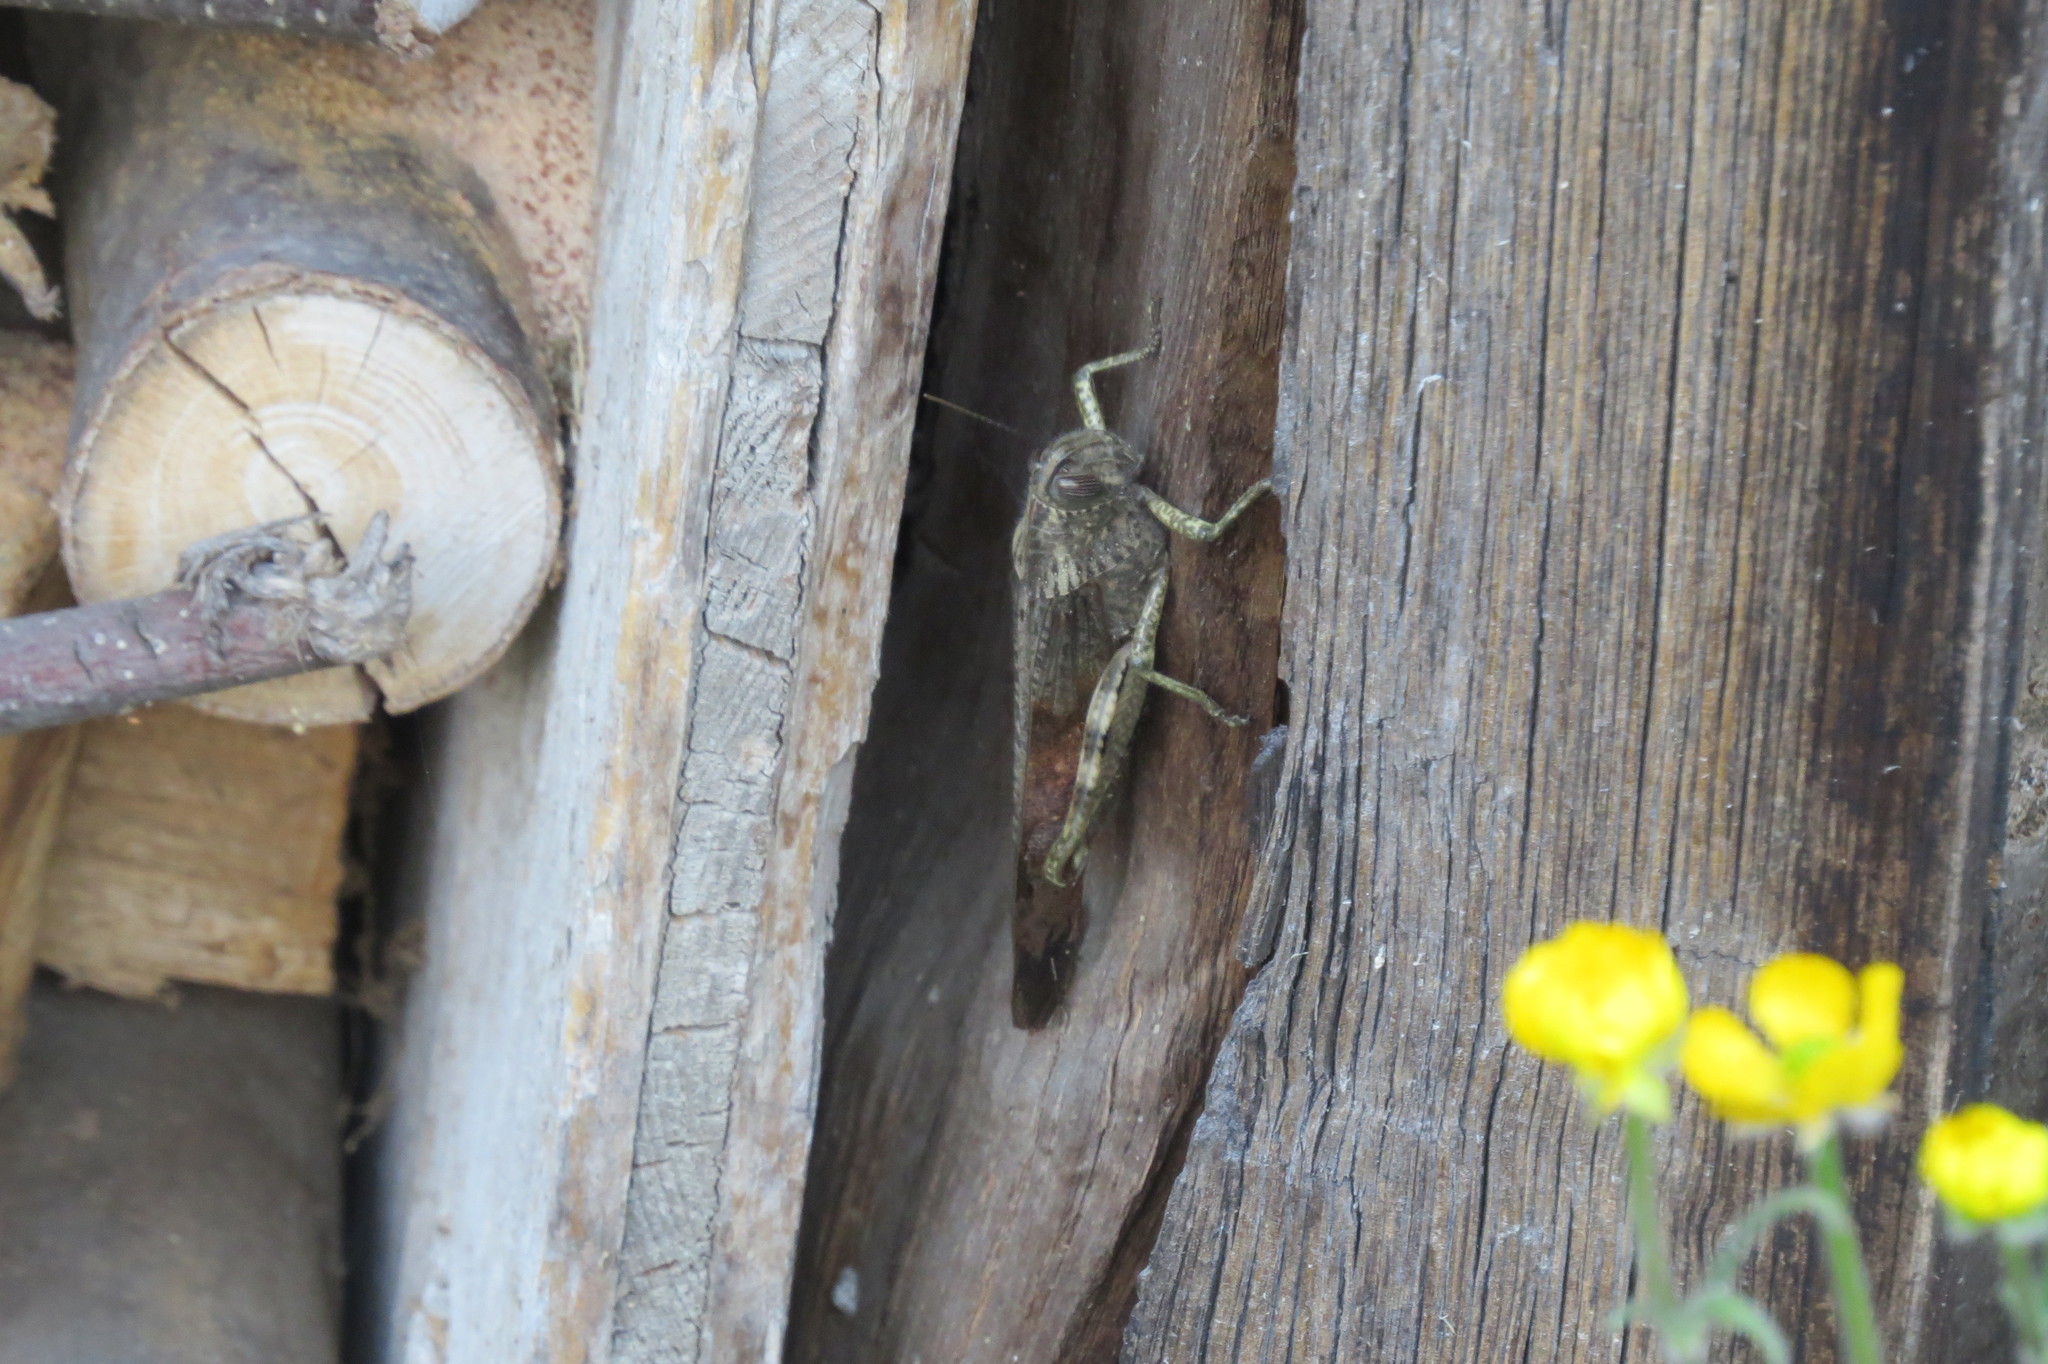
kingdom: Animalia
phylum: Arthropoda
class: Insecta
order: Orthoptera
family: Acrididae
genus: Anacridium
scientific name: Anacridium aegyptium
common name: Egyptian grasshopper
